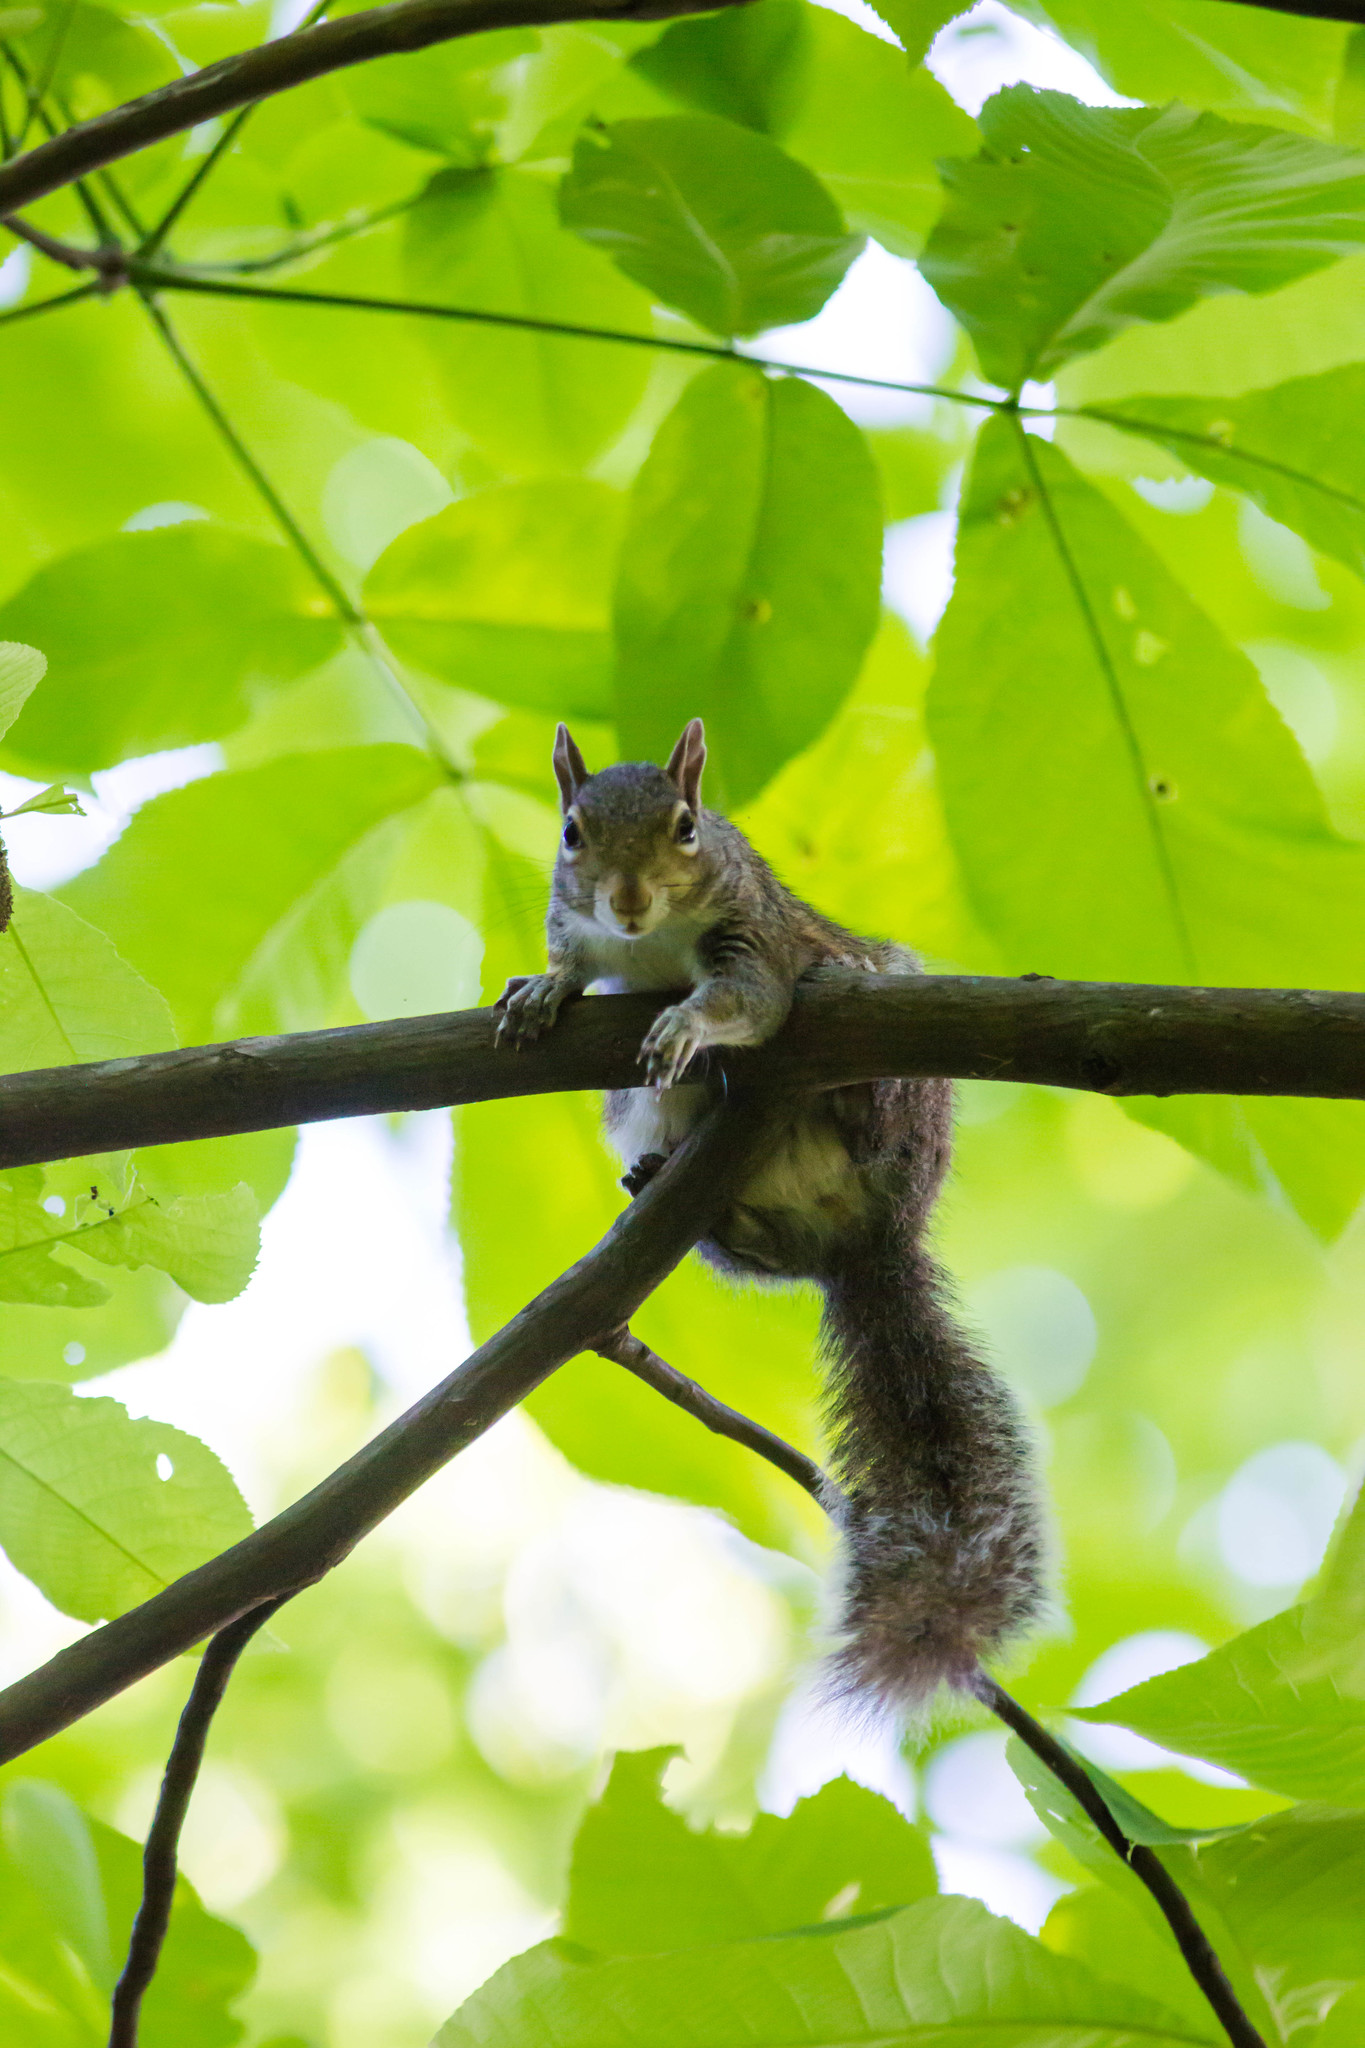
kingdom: Animalia
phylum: Chordata
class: Mammalia
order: Rodentia
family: Sciuridae
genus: Sciurus
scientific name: Sciurus carolinensis
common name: Eastern gray squirrel
